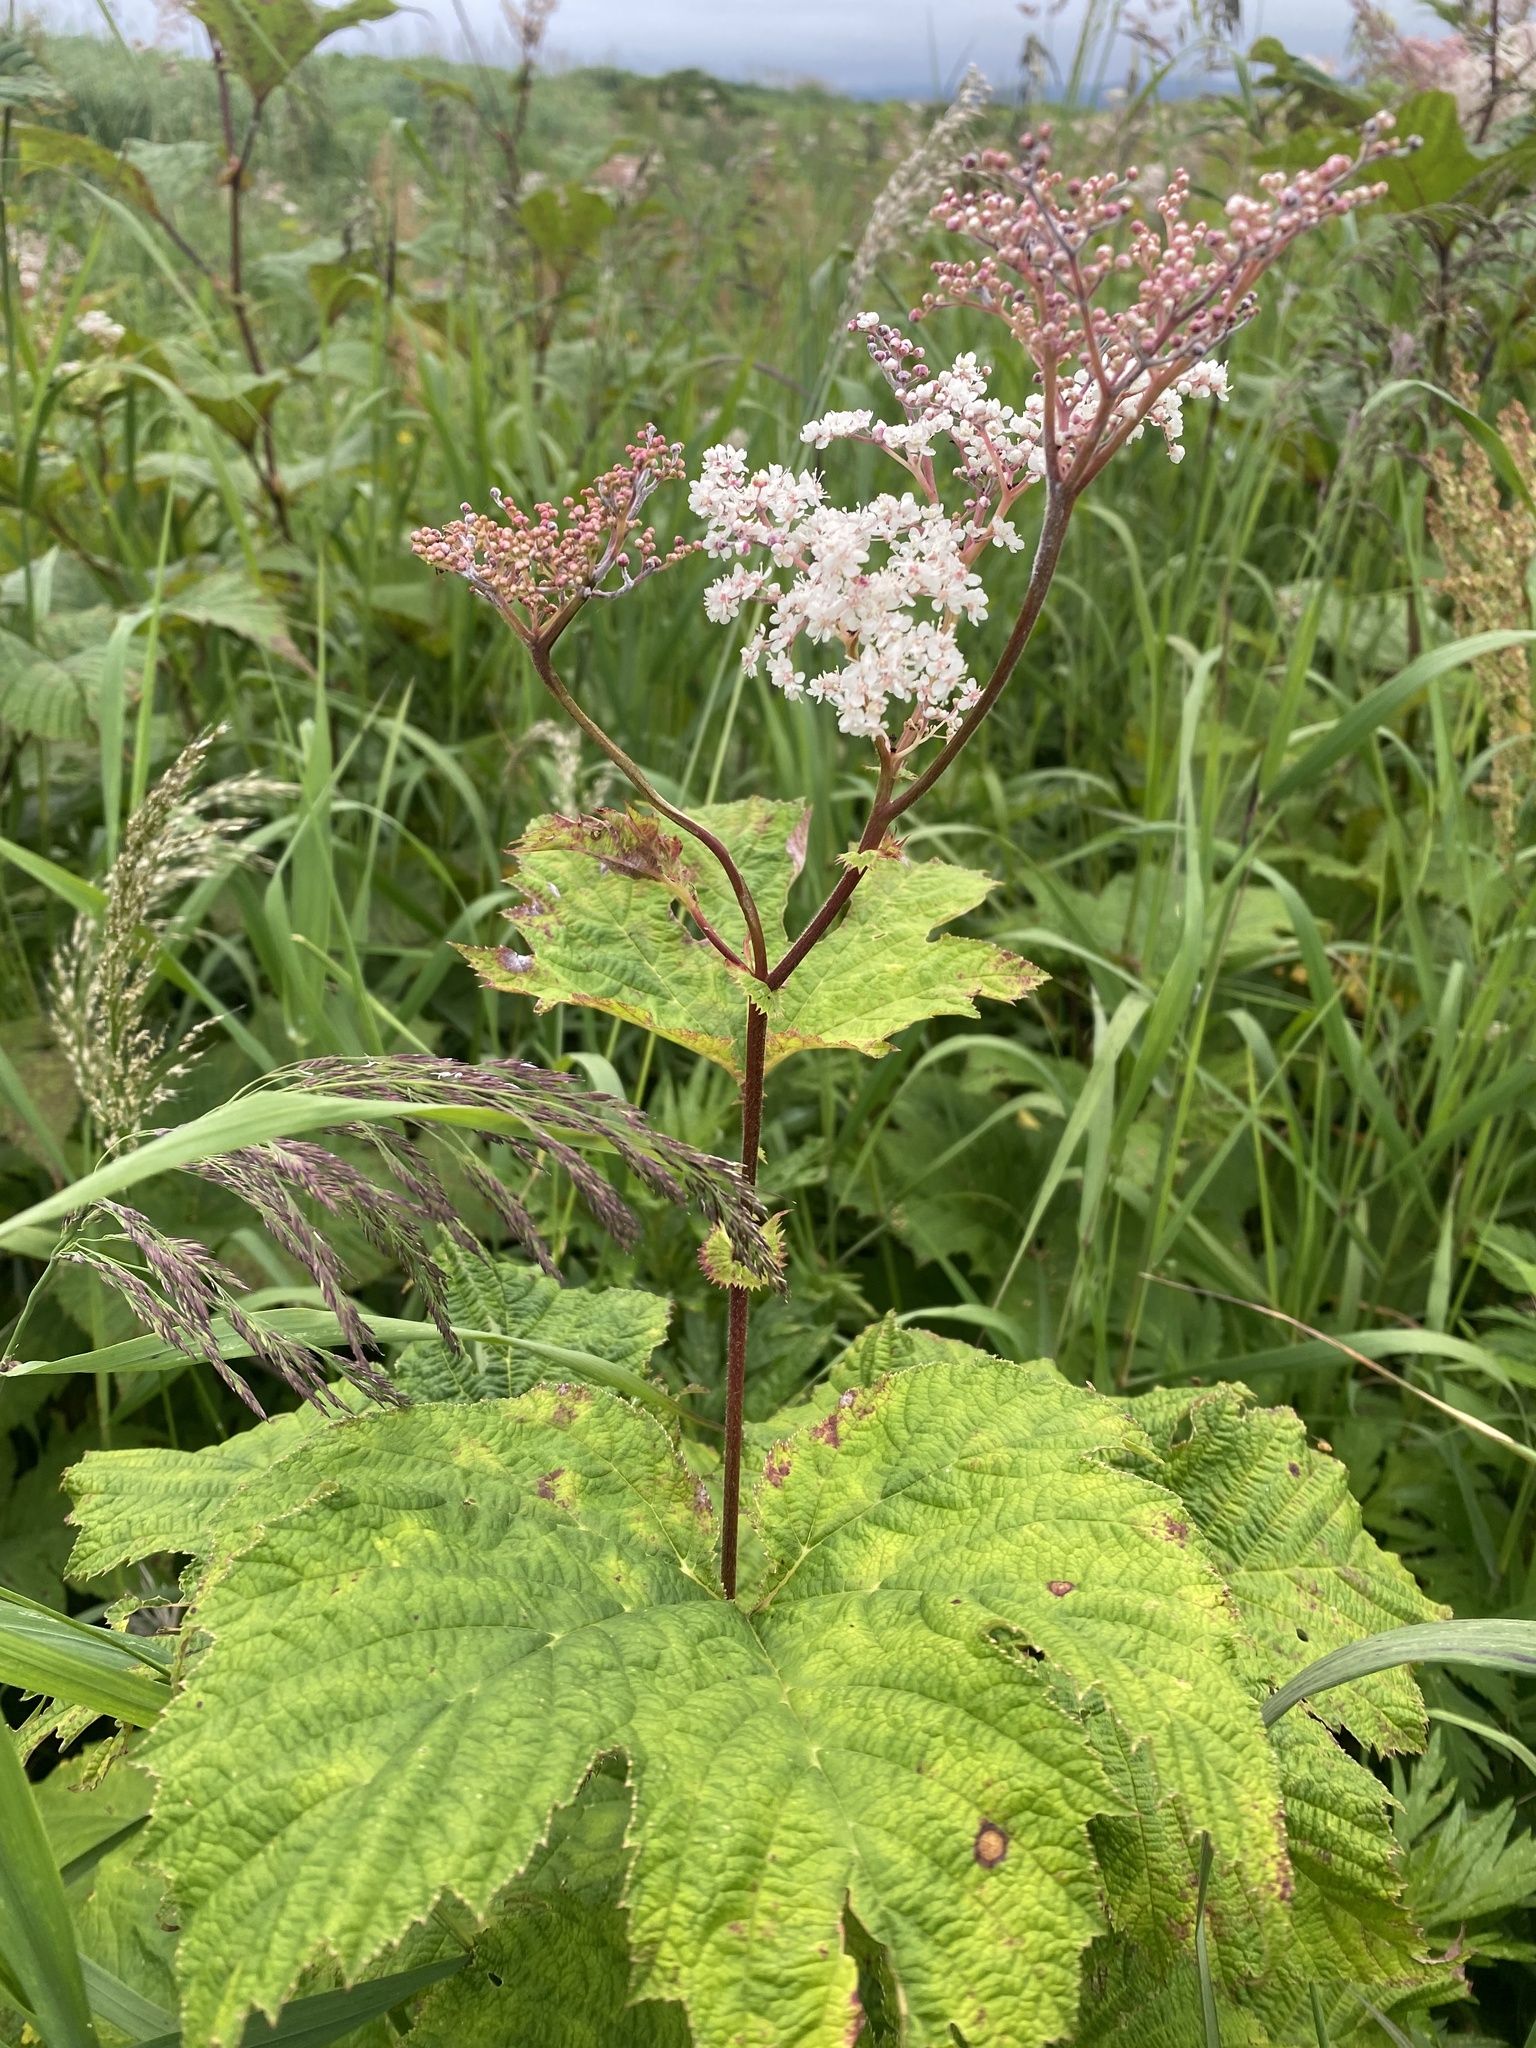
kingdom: Plantae
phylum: Tracheophyta
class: Magnoliopsida
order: Rosales
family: Rosaceae
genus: Filipendula
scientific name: Filipendula camtschatica
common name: Giant meadowsweet
